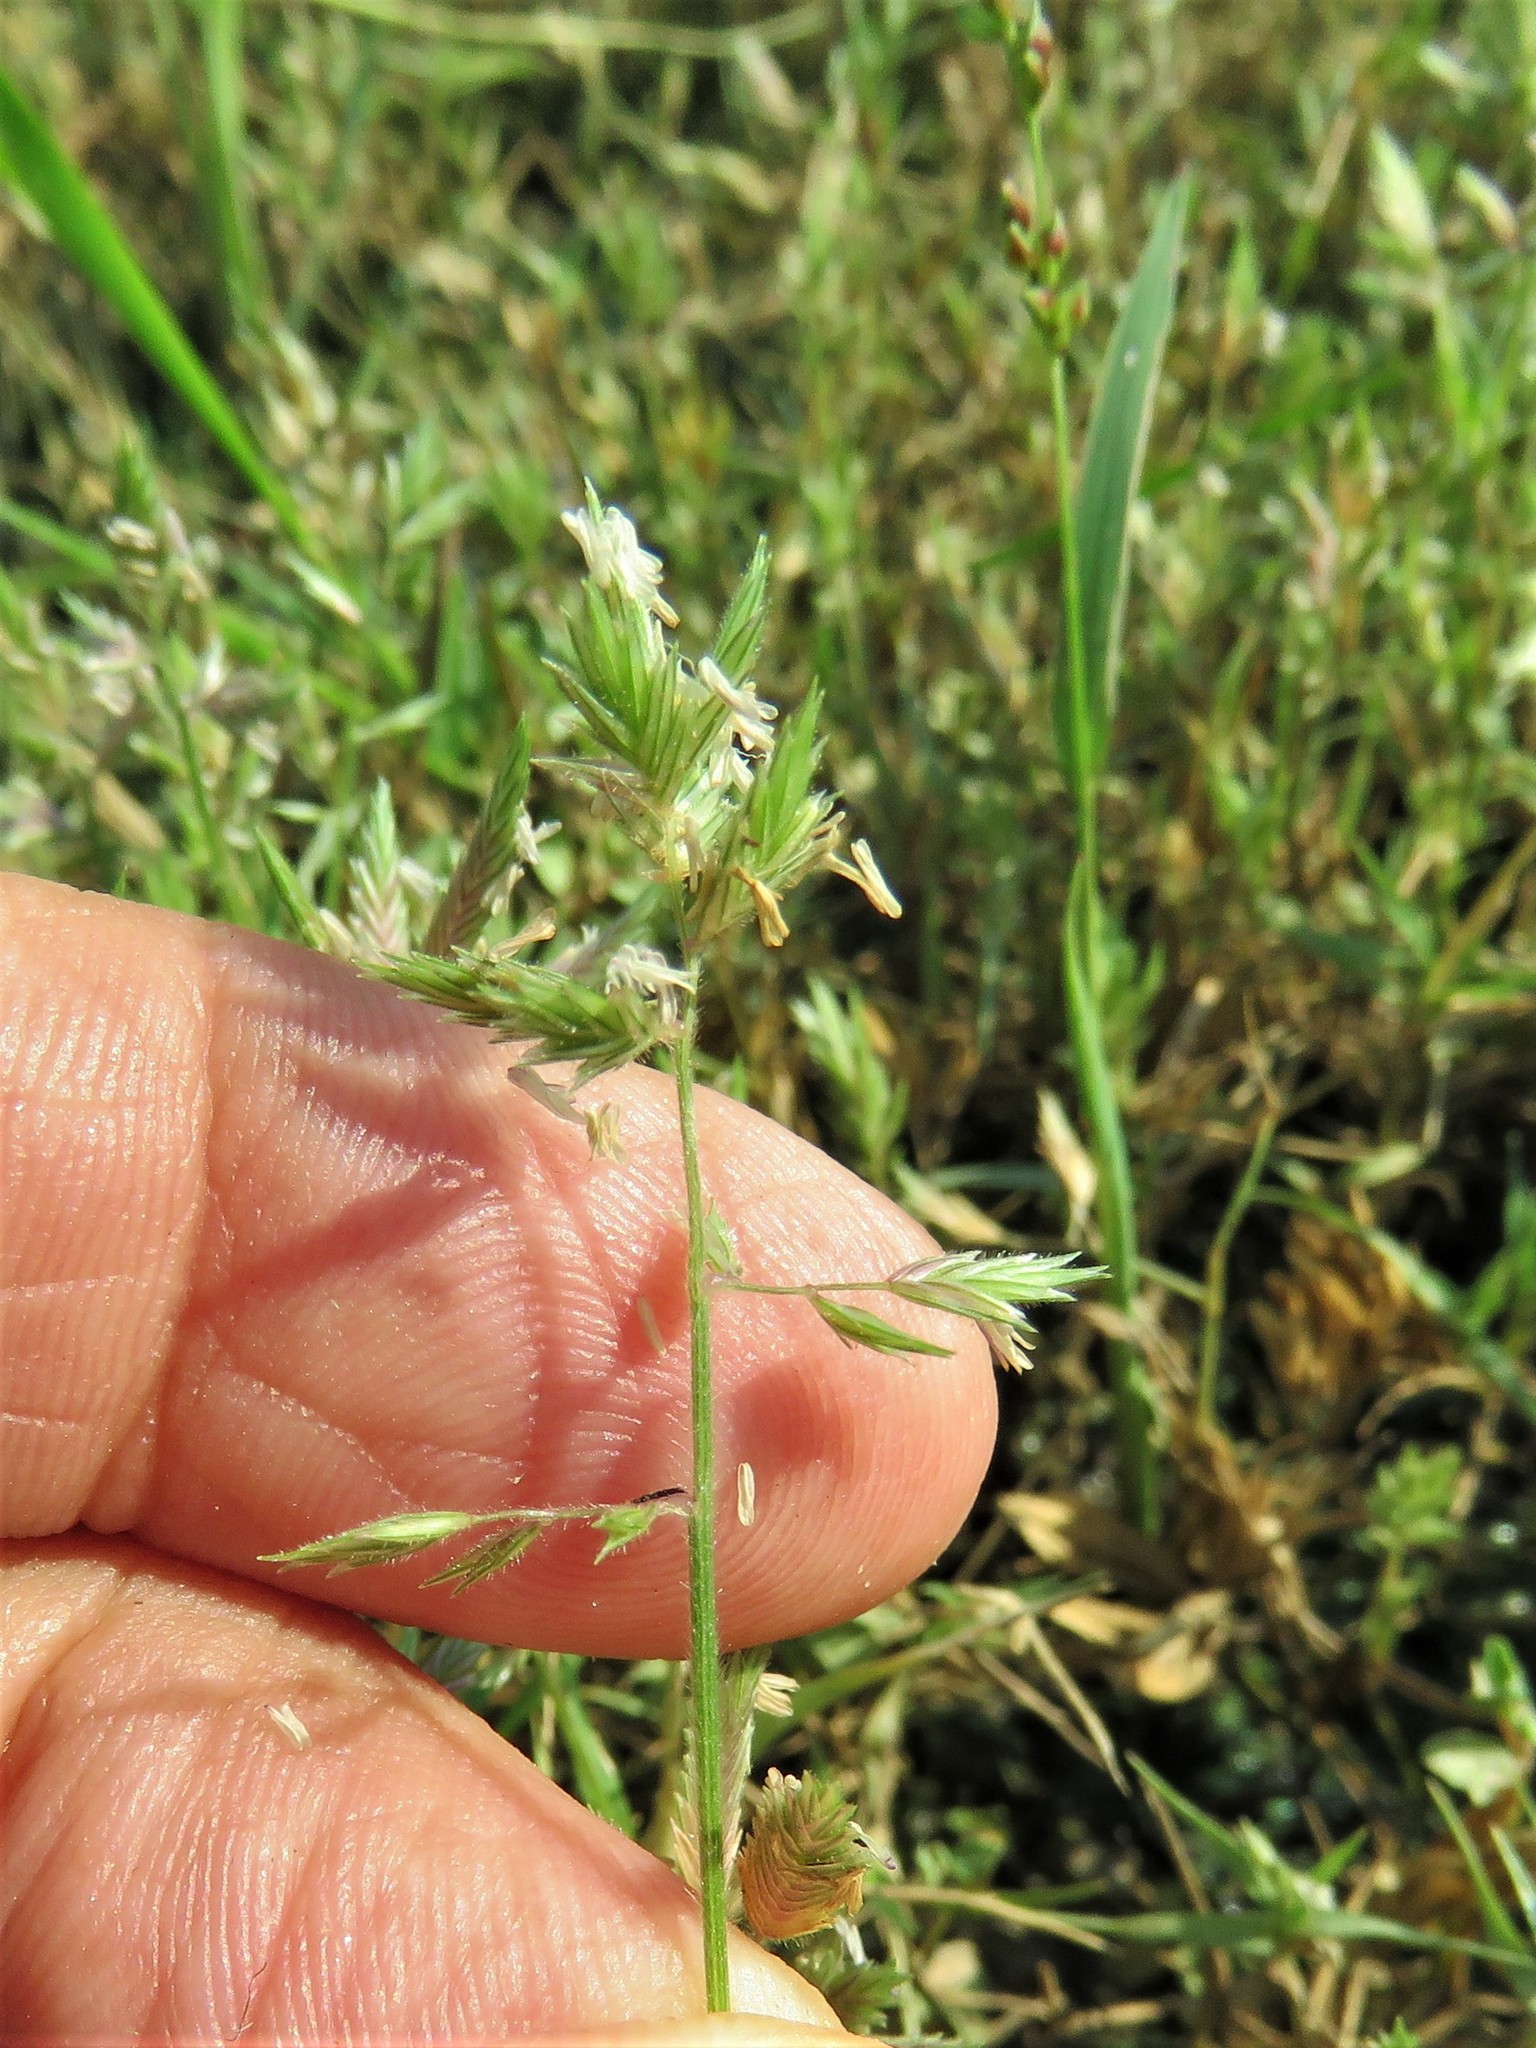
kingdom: Plantae
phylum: Tracheophyta
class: Liliopsida
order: Poales
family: Poaceae
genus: Eragrostis
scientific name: Eragrostis reptans
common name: Creeping love grass
